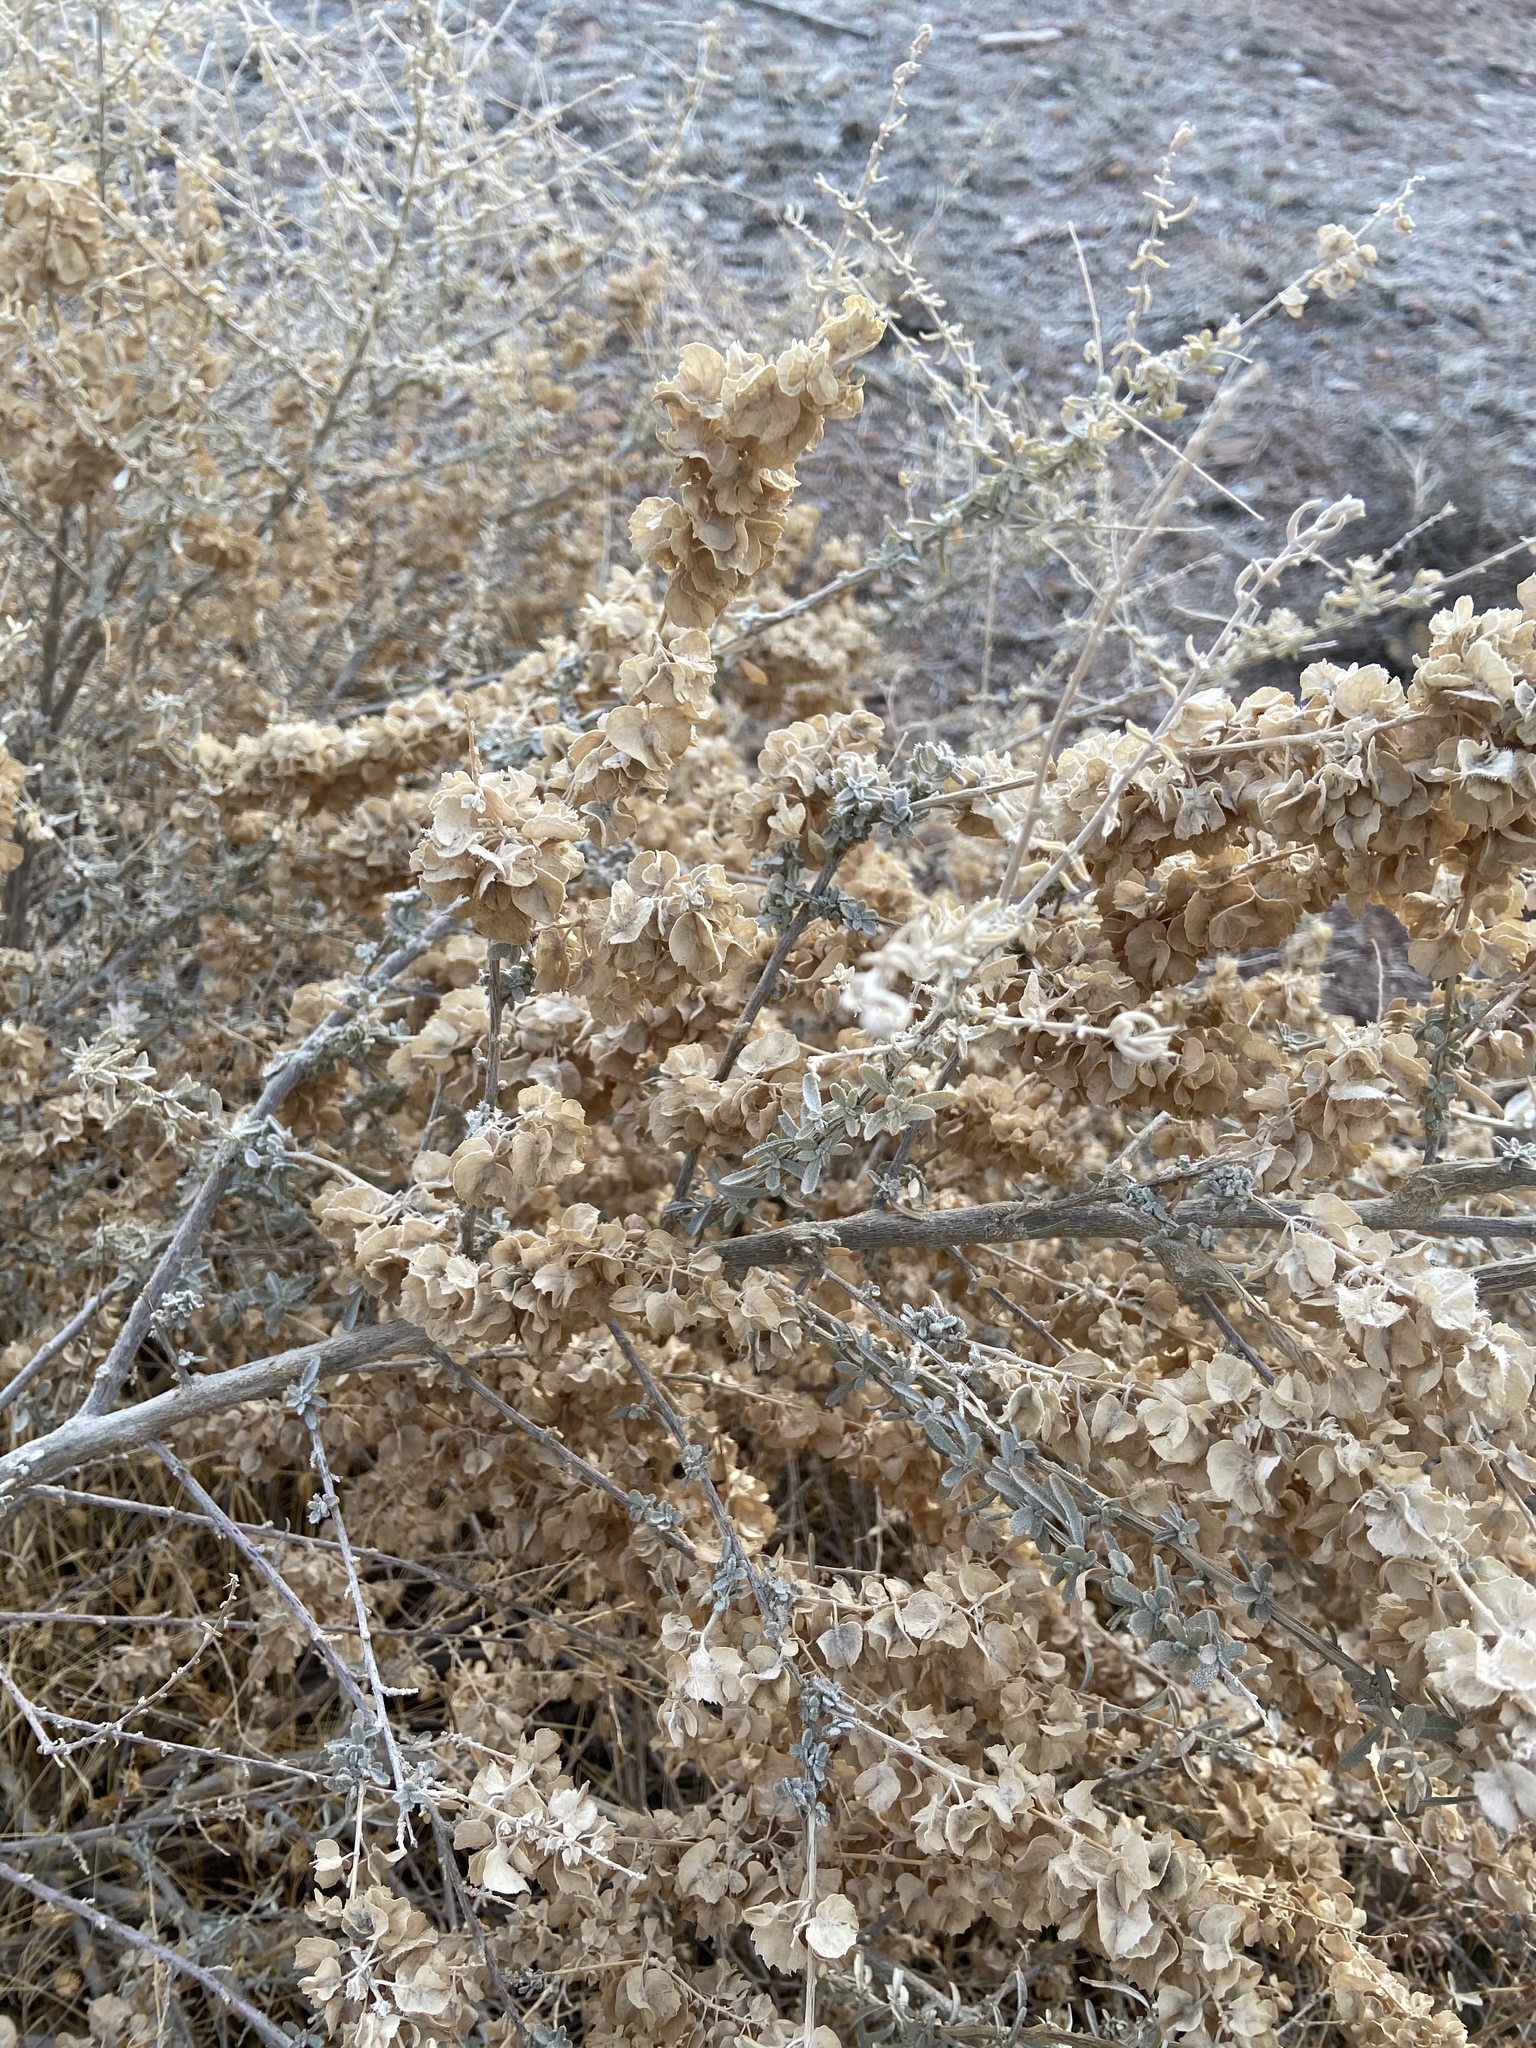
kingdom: Plantae
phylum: Tracheophyta
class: Magnoliopsida
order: Caryophyllales
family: Amaranthaceae
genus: Atriplex
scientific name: Atriplex canescens
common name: Four-wing saltbush
